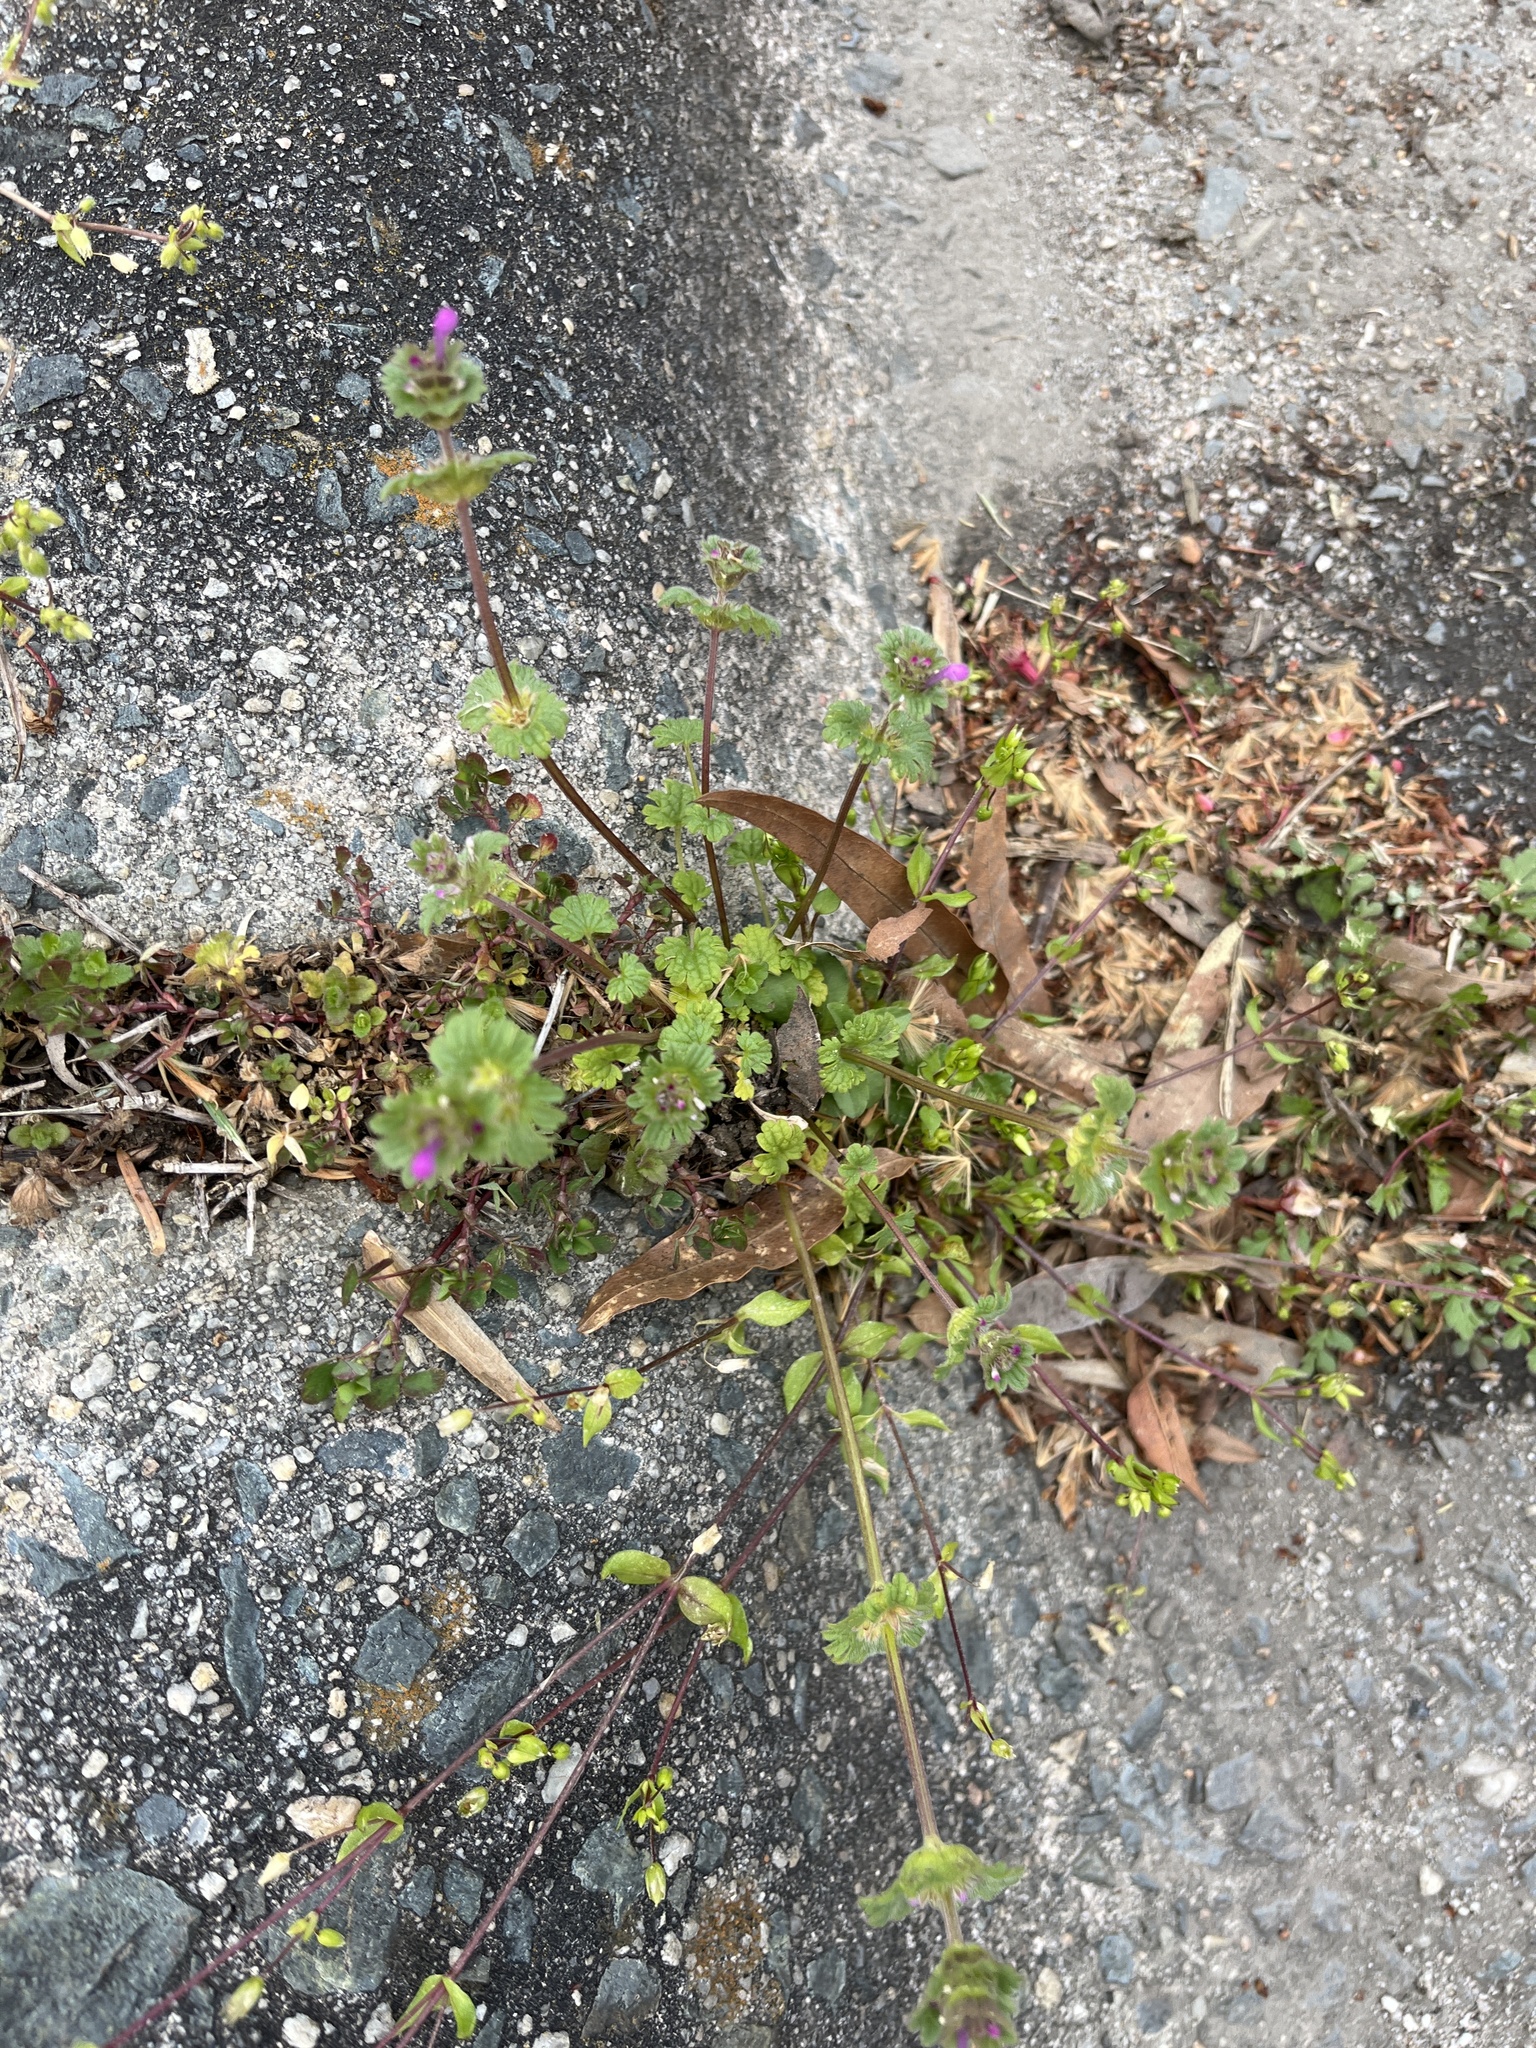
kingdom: Plantae
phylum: Tracheophyta
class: Magnoliopsida
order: Lamiales
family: Lamiaceae
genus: Lamium
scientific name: Lamium amplexicaule
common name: Henbit dead-nettle
